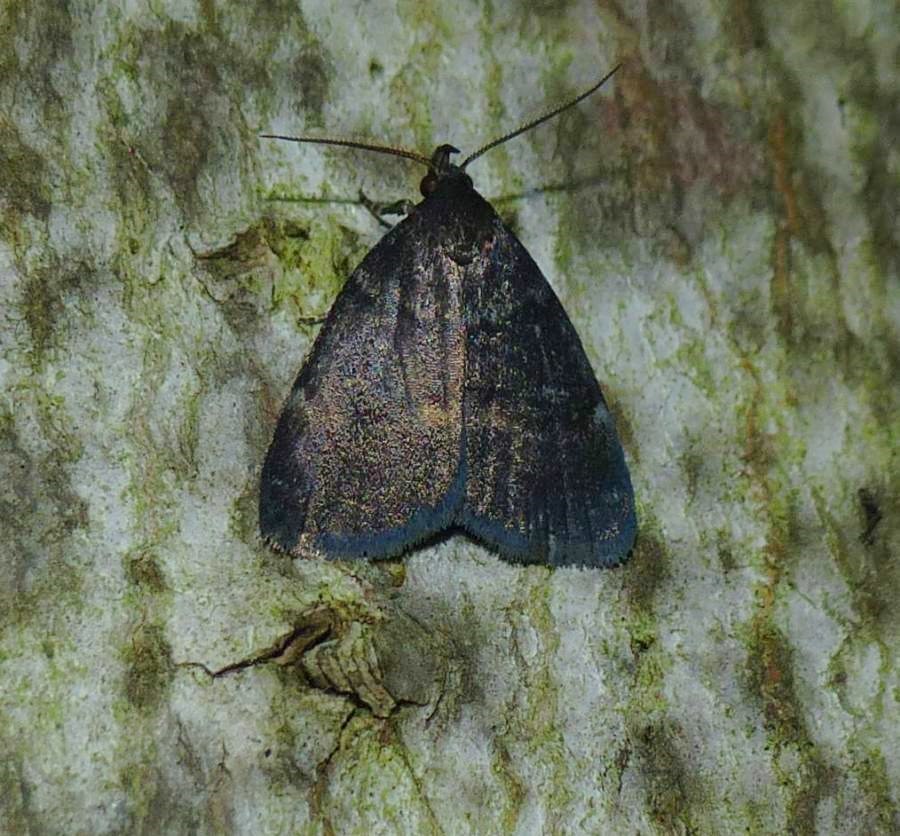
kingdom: Animalia
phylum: Arthropoda
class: Insecta
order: Lepidoptera
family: Erebidae
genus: Idia
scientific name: Idia rotundalis
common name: Rotund idia moth
